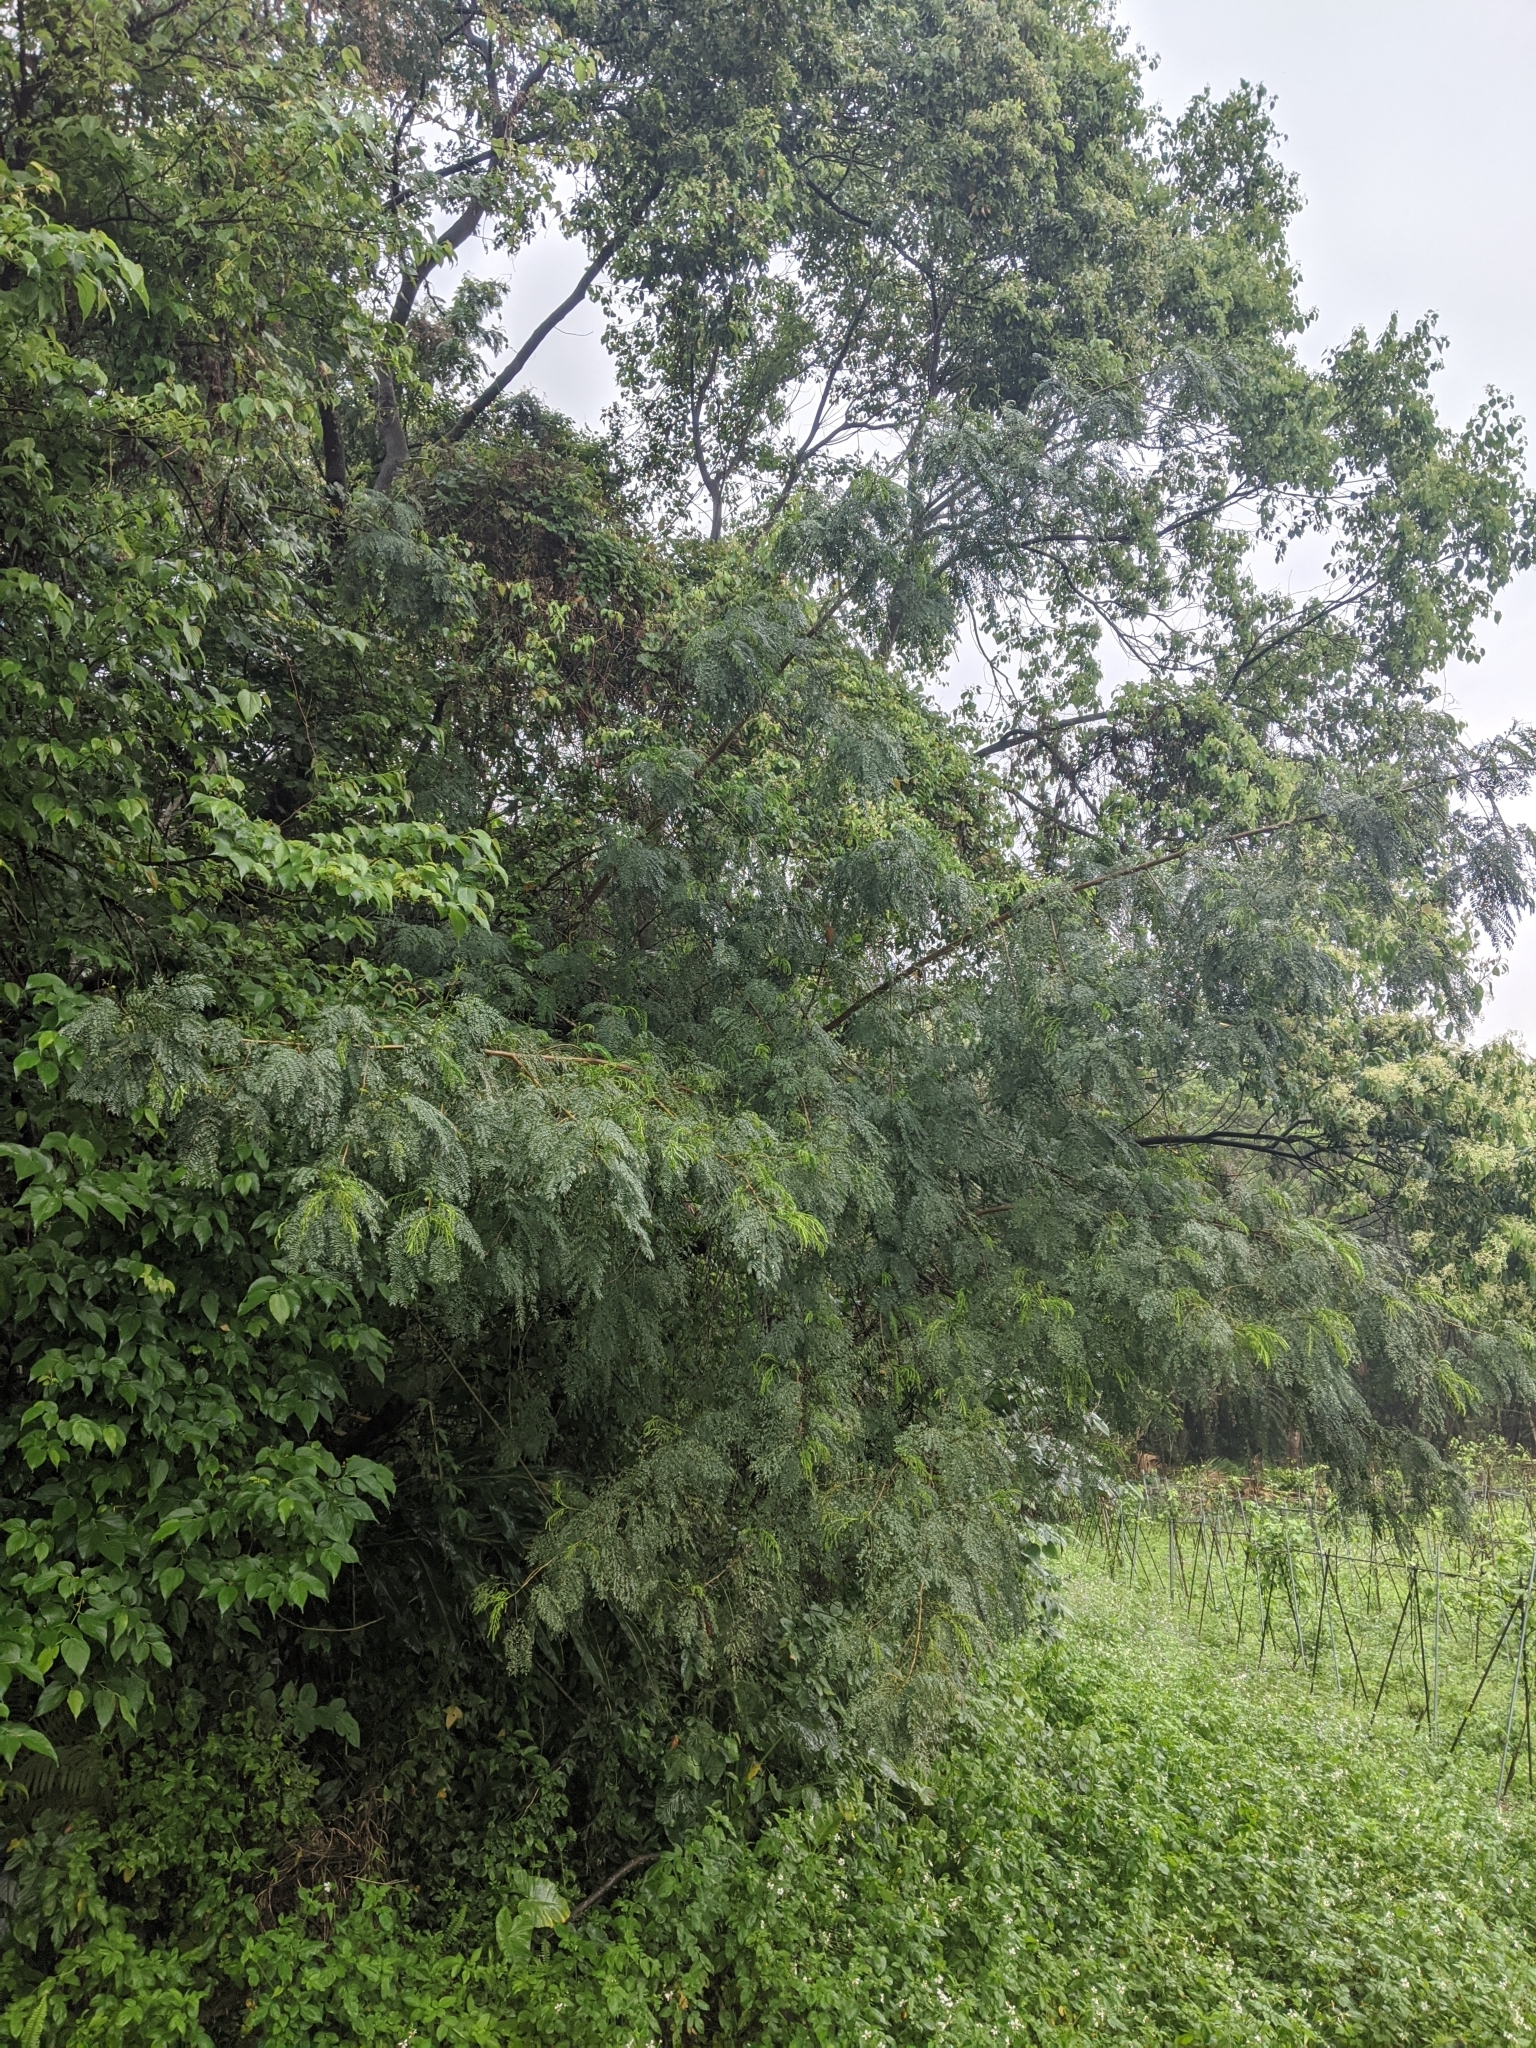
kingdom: Plantae
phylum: Tracheophyta
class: Magnoliopsida
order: Fabales
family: Fabaceae
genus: Leucaena
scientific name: Leucaena leucocephala
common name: White leadtree
